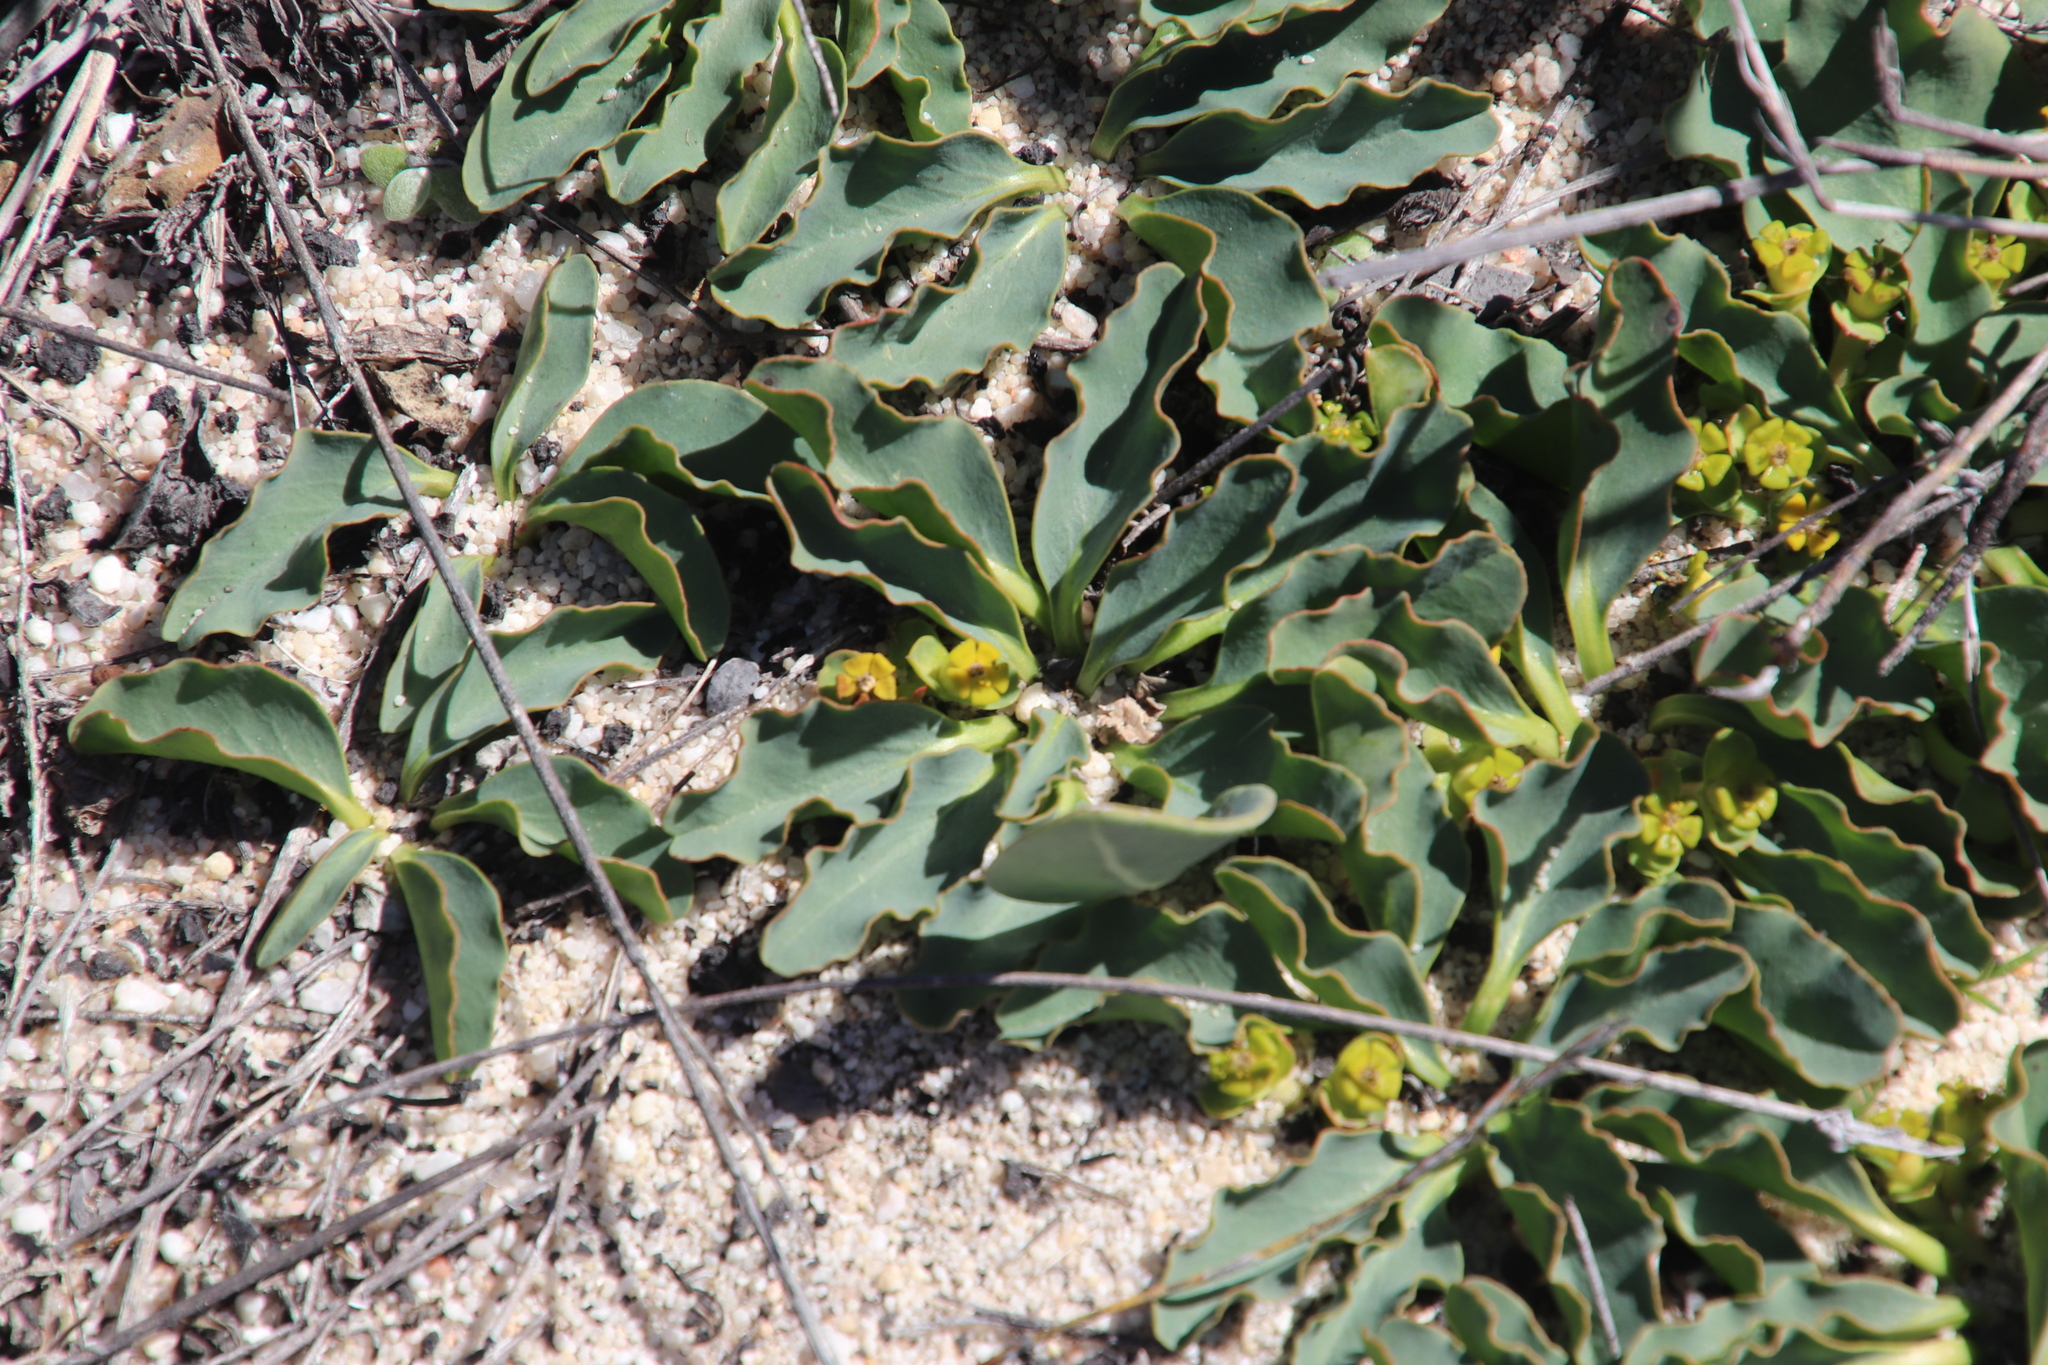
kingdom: Plantae
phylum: Tracheophyta
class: Magnoliopsida
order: Malpighiales
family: Euphorbiaceae
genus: Euphorbia
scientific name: Euphorbia tuberosa
